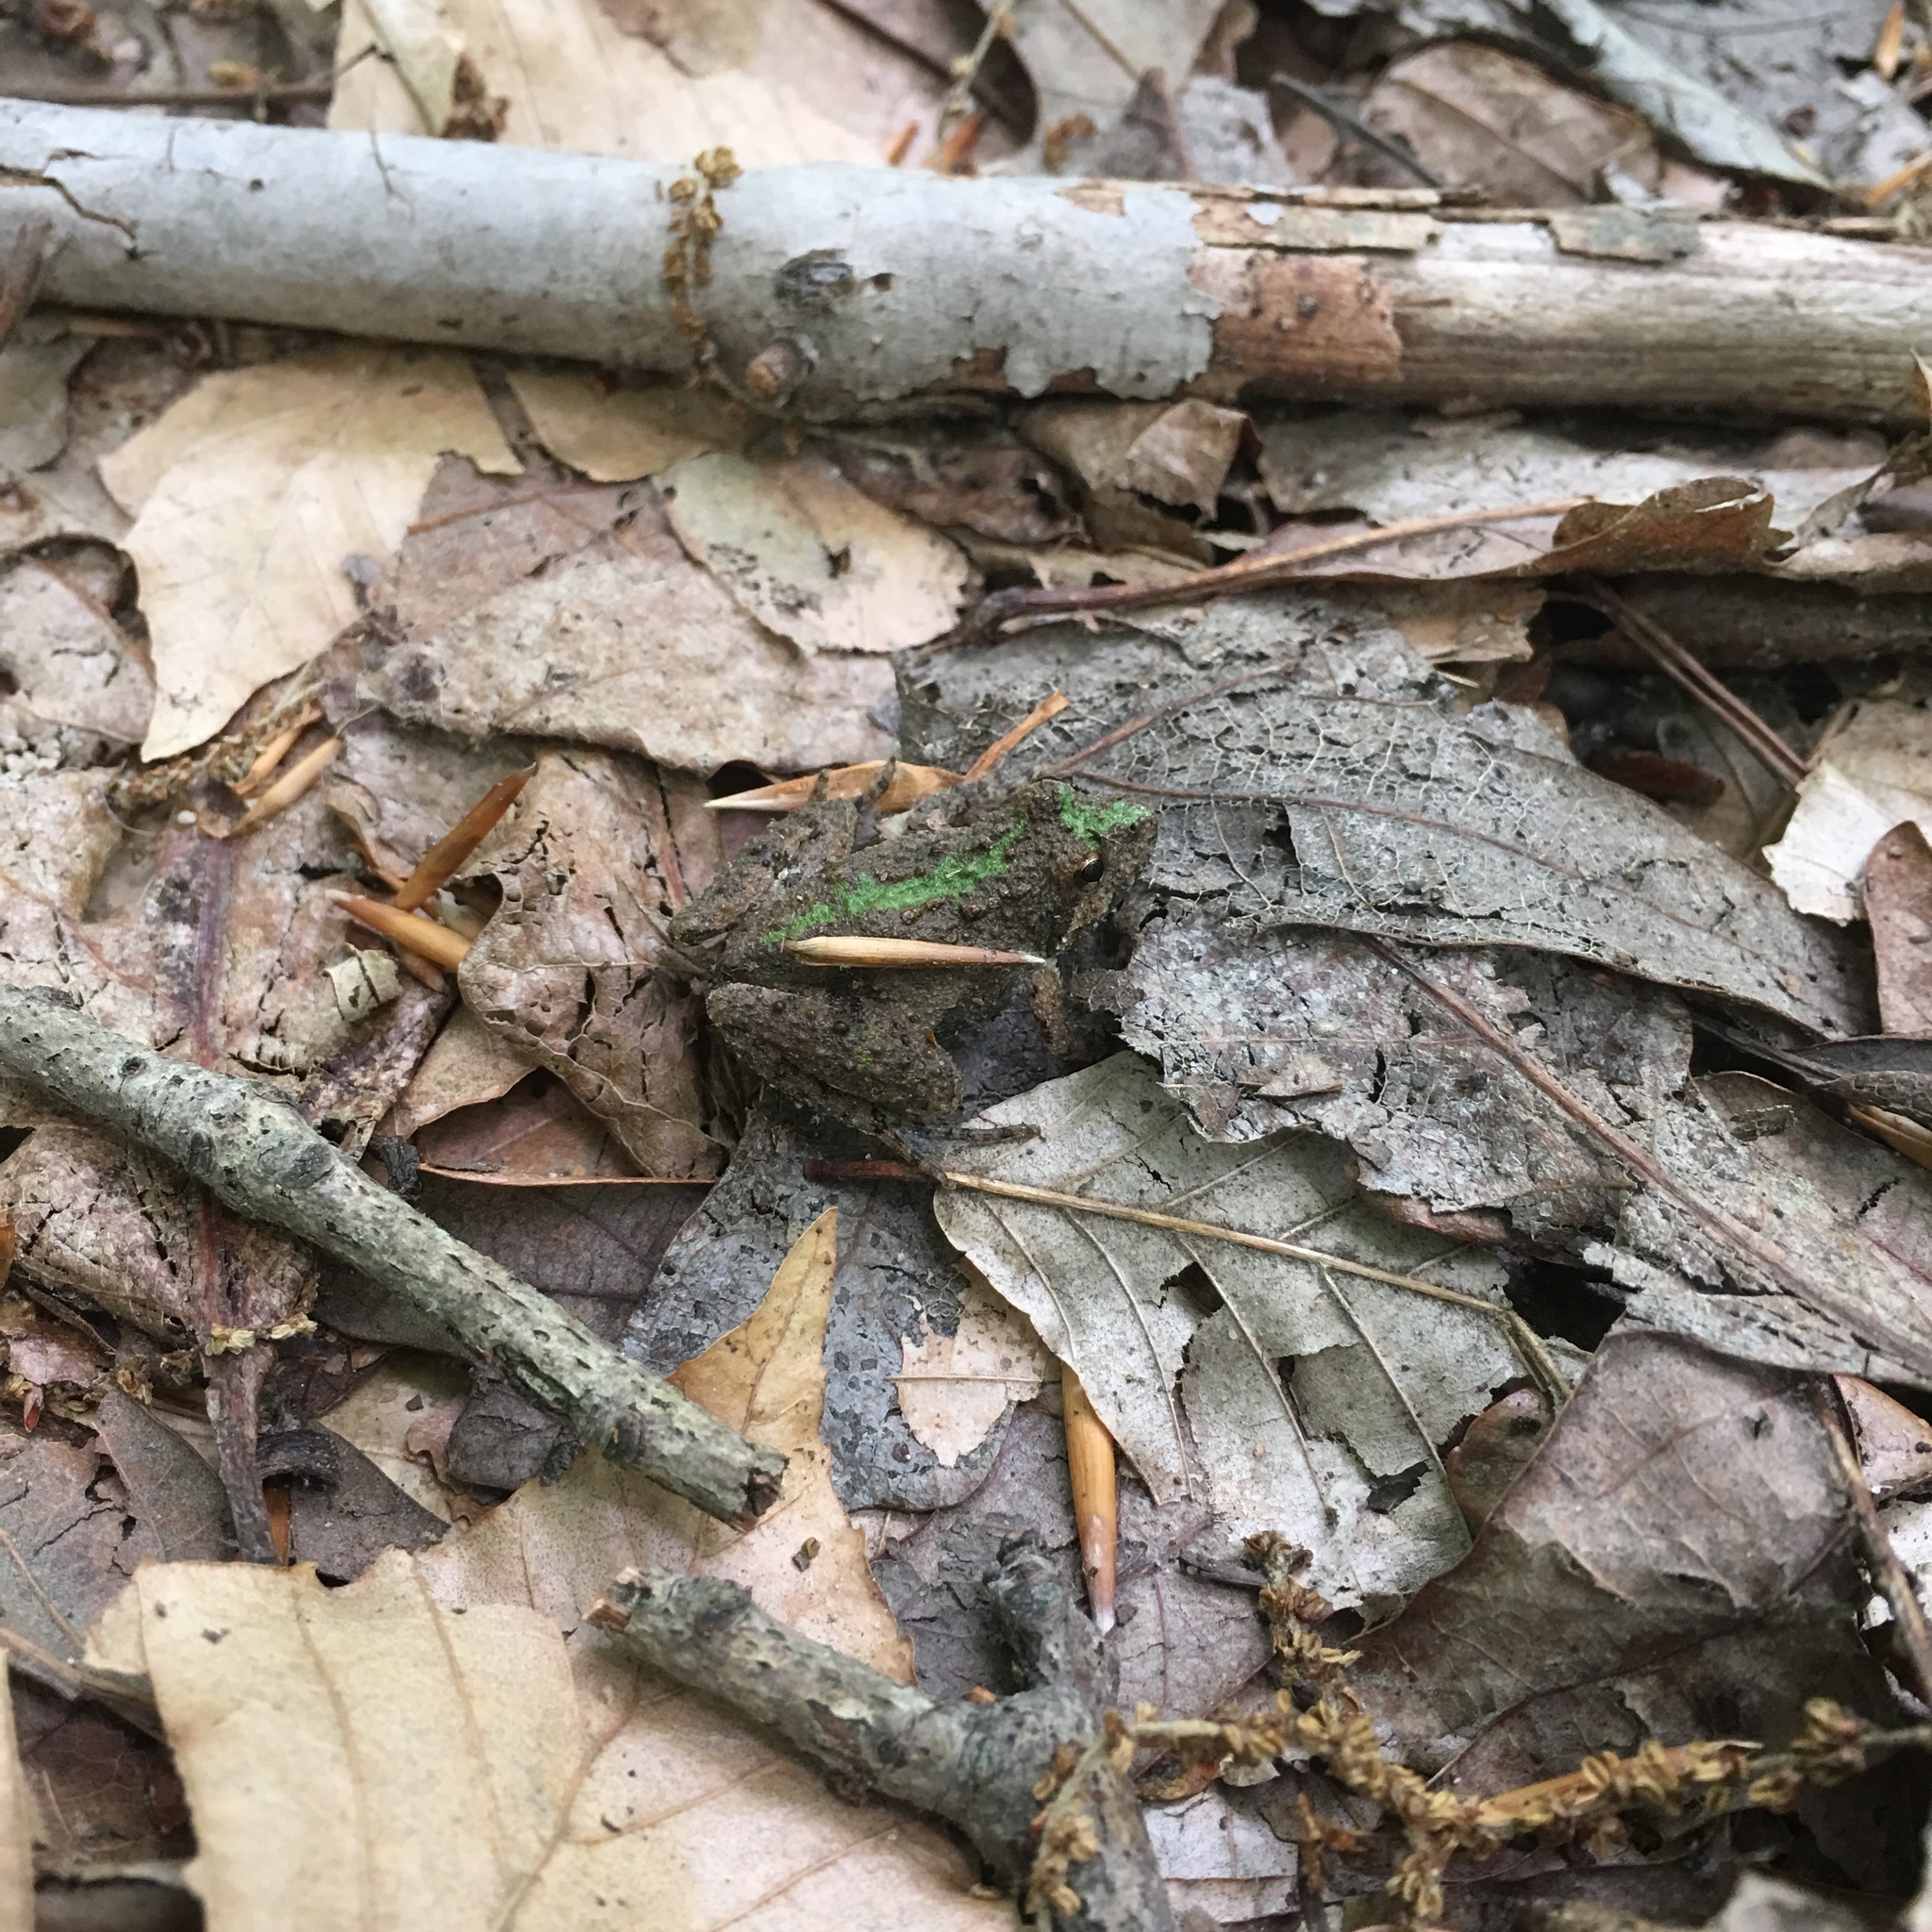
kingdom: Animalia
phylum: Chordata
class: Amphibia
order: Anura
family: Hylidae
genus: Acris
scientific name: Acris crepitans
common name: Northern cricket frog
